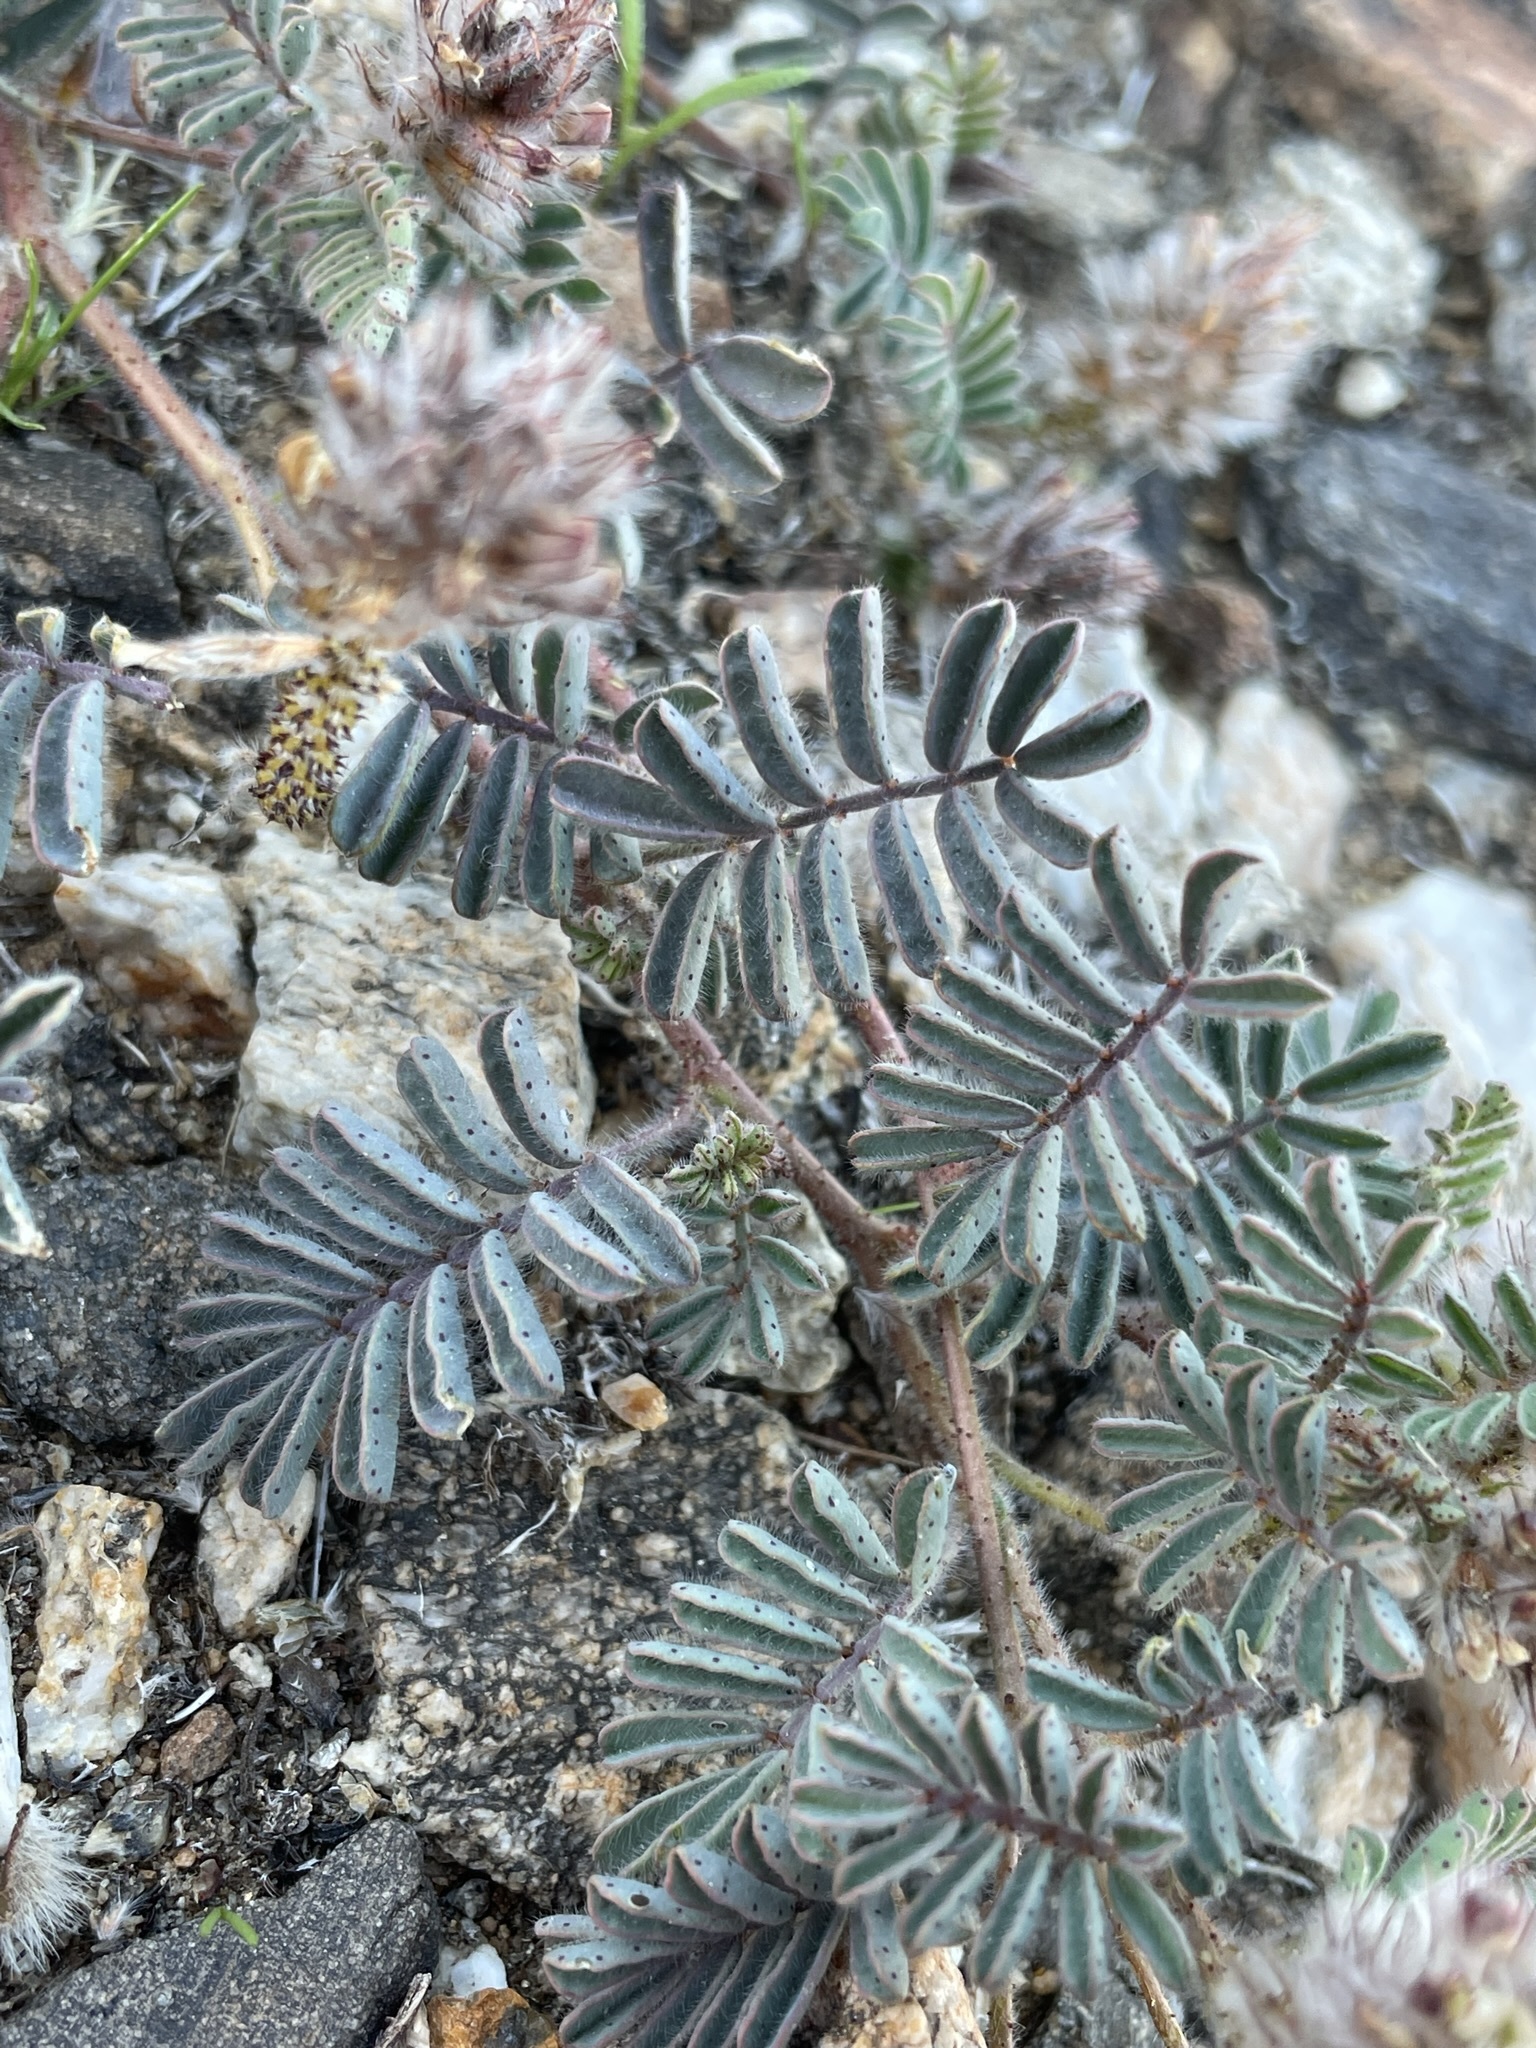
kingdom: Plantae
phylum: Tracheophyta
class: Magnoliopsida
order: Fabales
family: Fabaceae
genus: Dalea
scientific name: Dalea mollis
